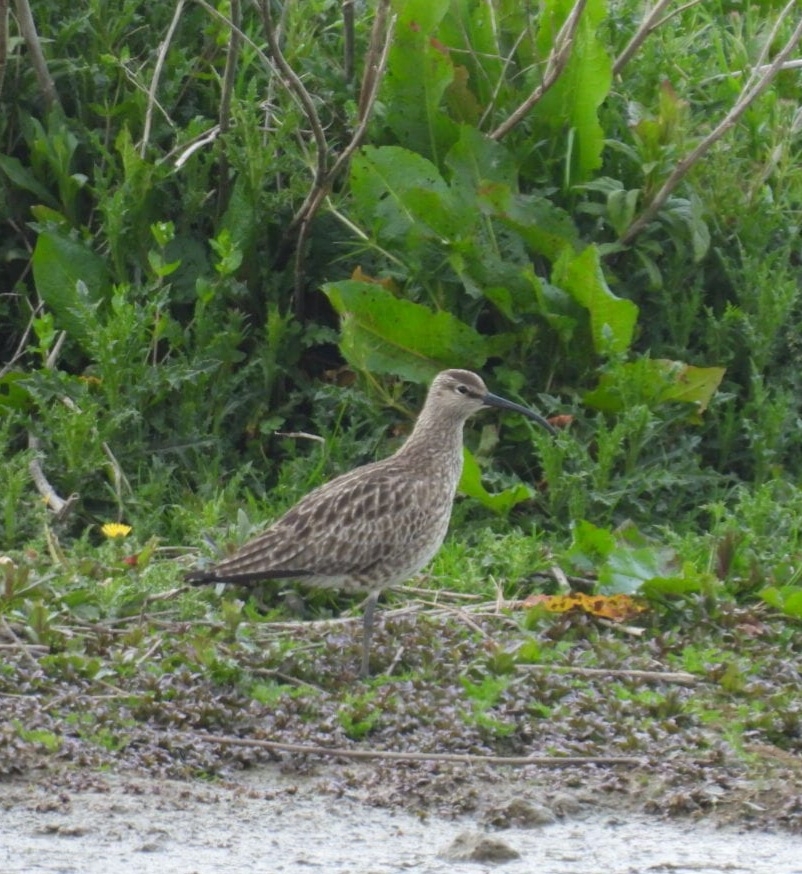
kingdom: Animalia
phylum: Chordata
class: Aves
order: Charadriiformes
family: Scolopacidae
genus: Numenius
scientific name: Numenius phaeopus
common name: Whimbrel
